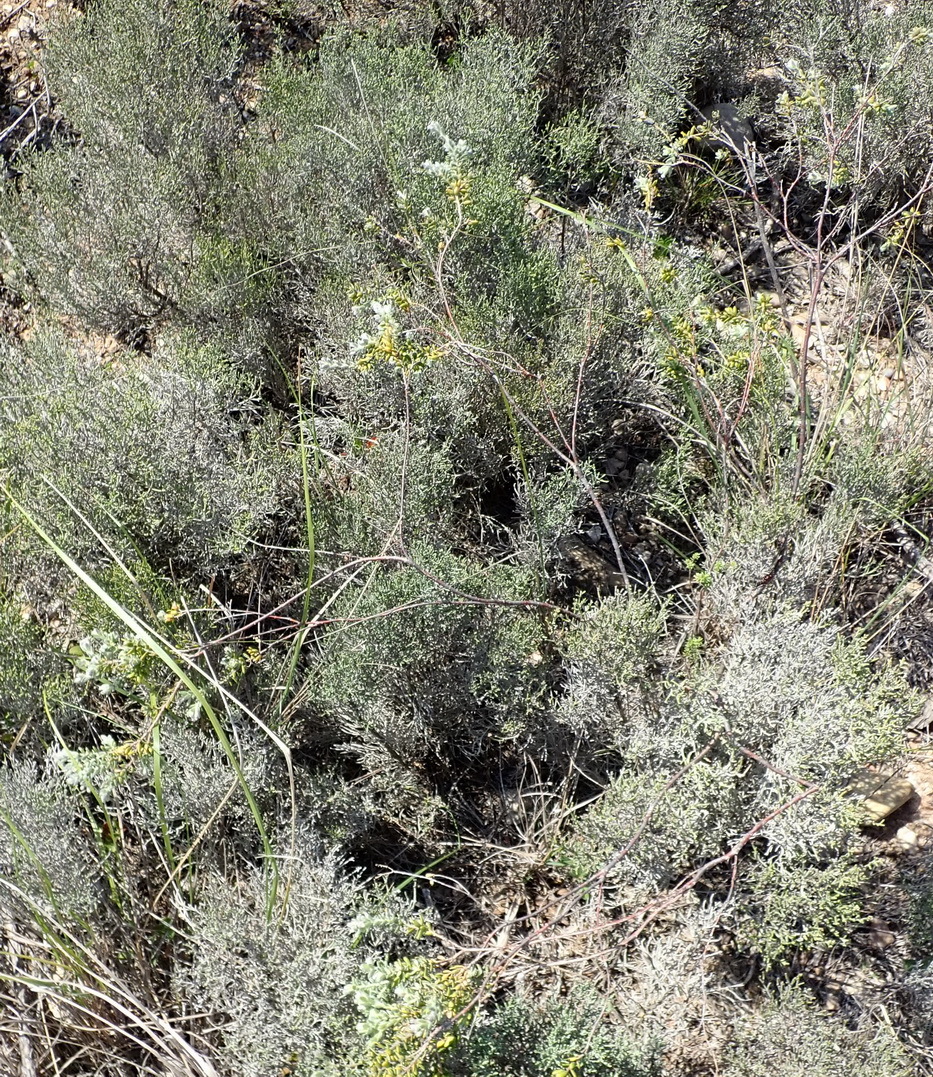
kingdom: Plantae
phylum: Tracheophyta
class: Magnoliopsida
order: Malvales
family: Thymelaeaceae
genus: Gnidia
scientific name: Gnidia nodiflora
